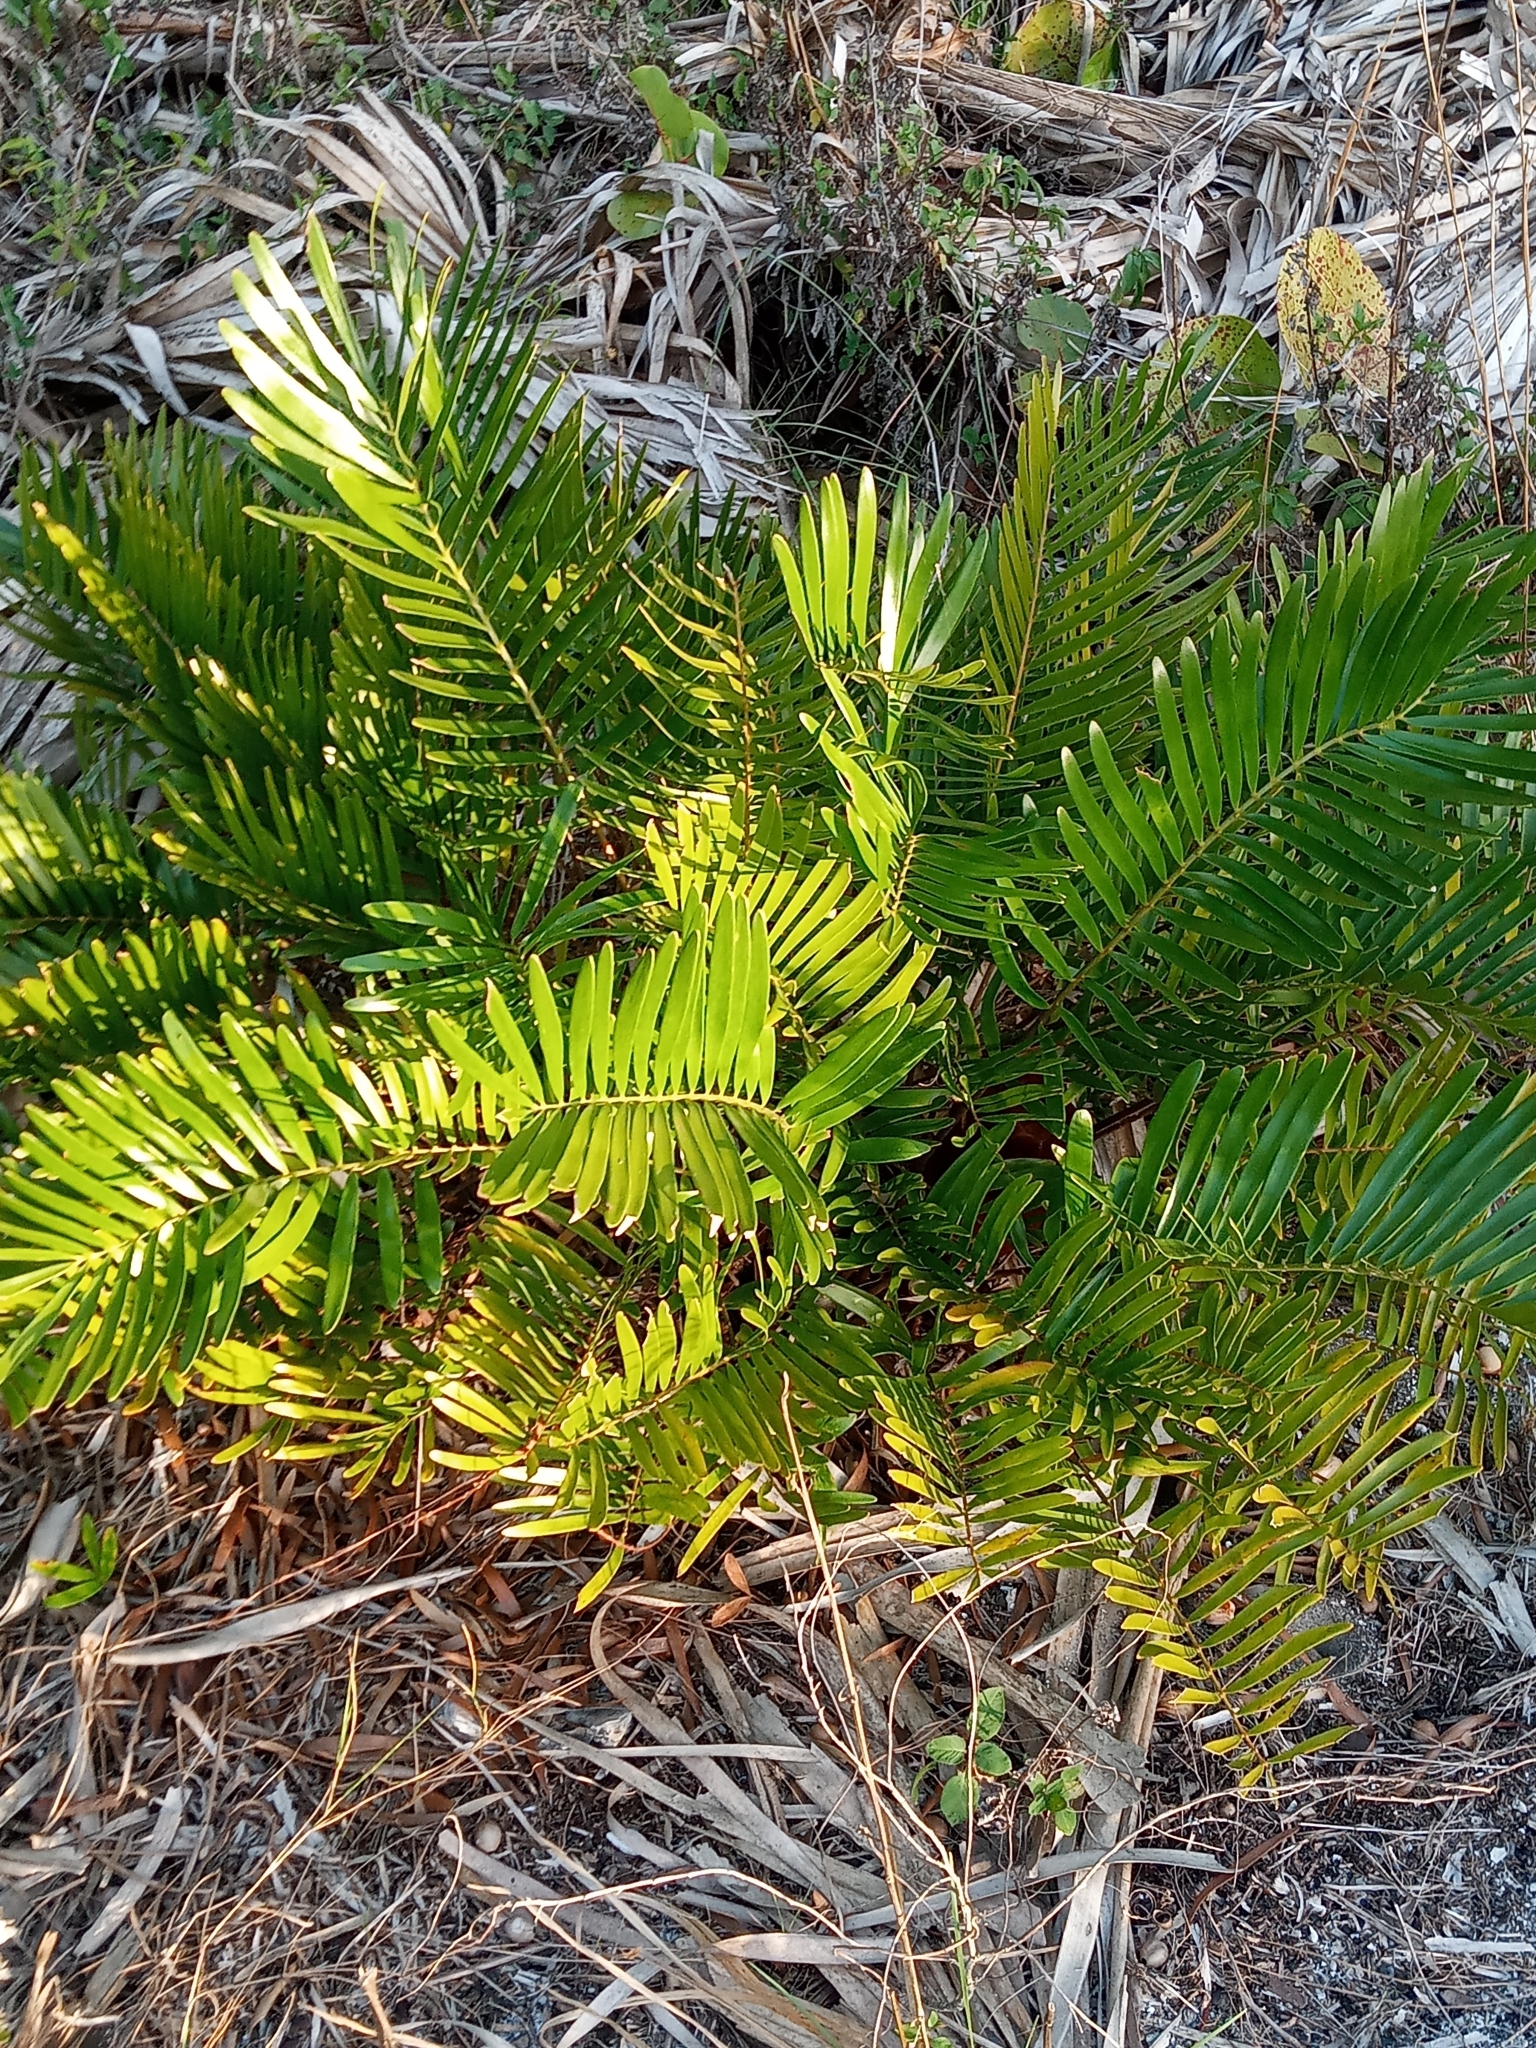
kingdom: Plantae
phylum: Tracheophyta
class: Cycadopsida
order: Cycadales
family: Zamiaceae
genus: Zamia
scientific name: Zamia integrifolia
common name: Florida arrowroot
